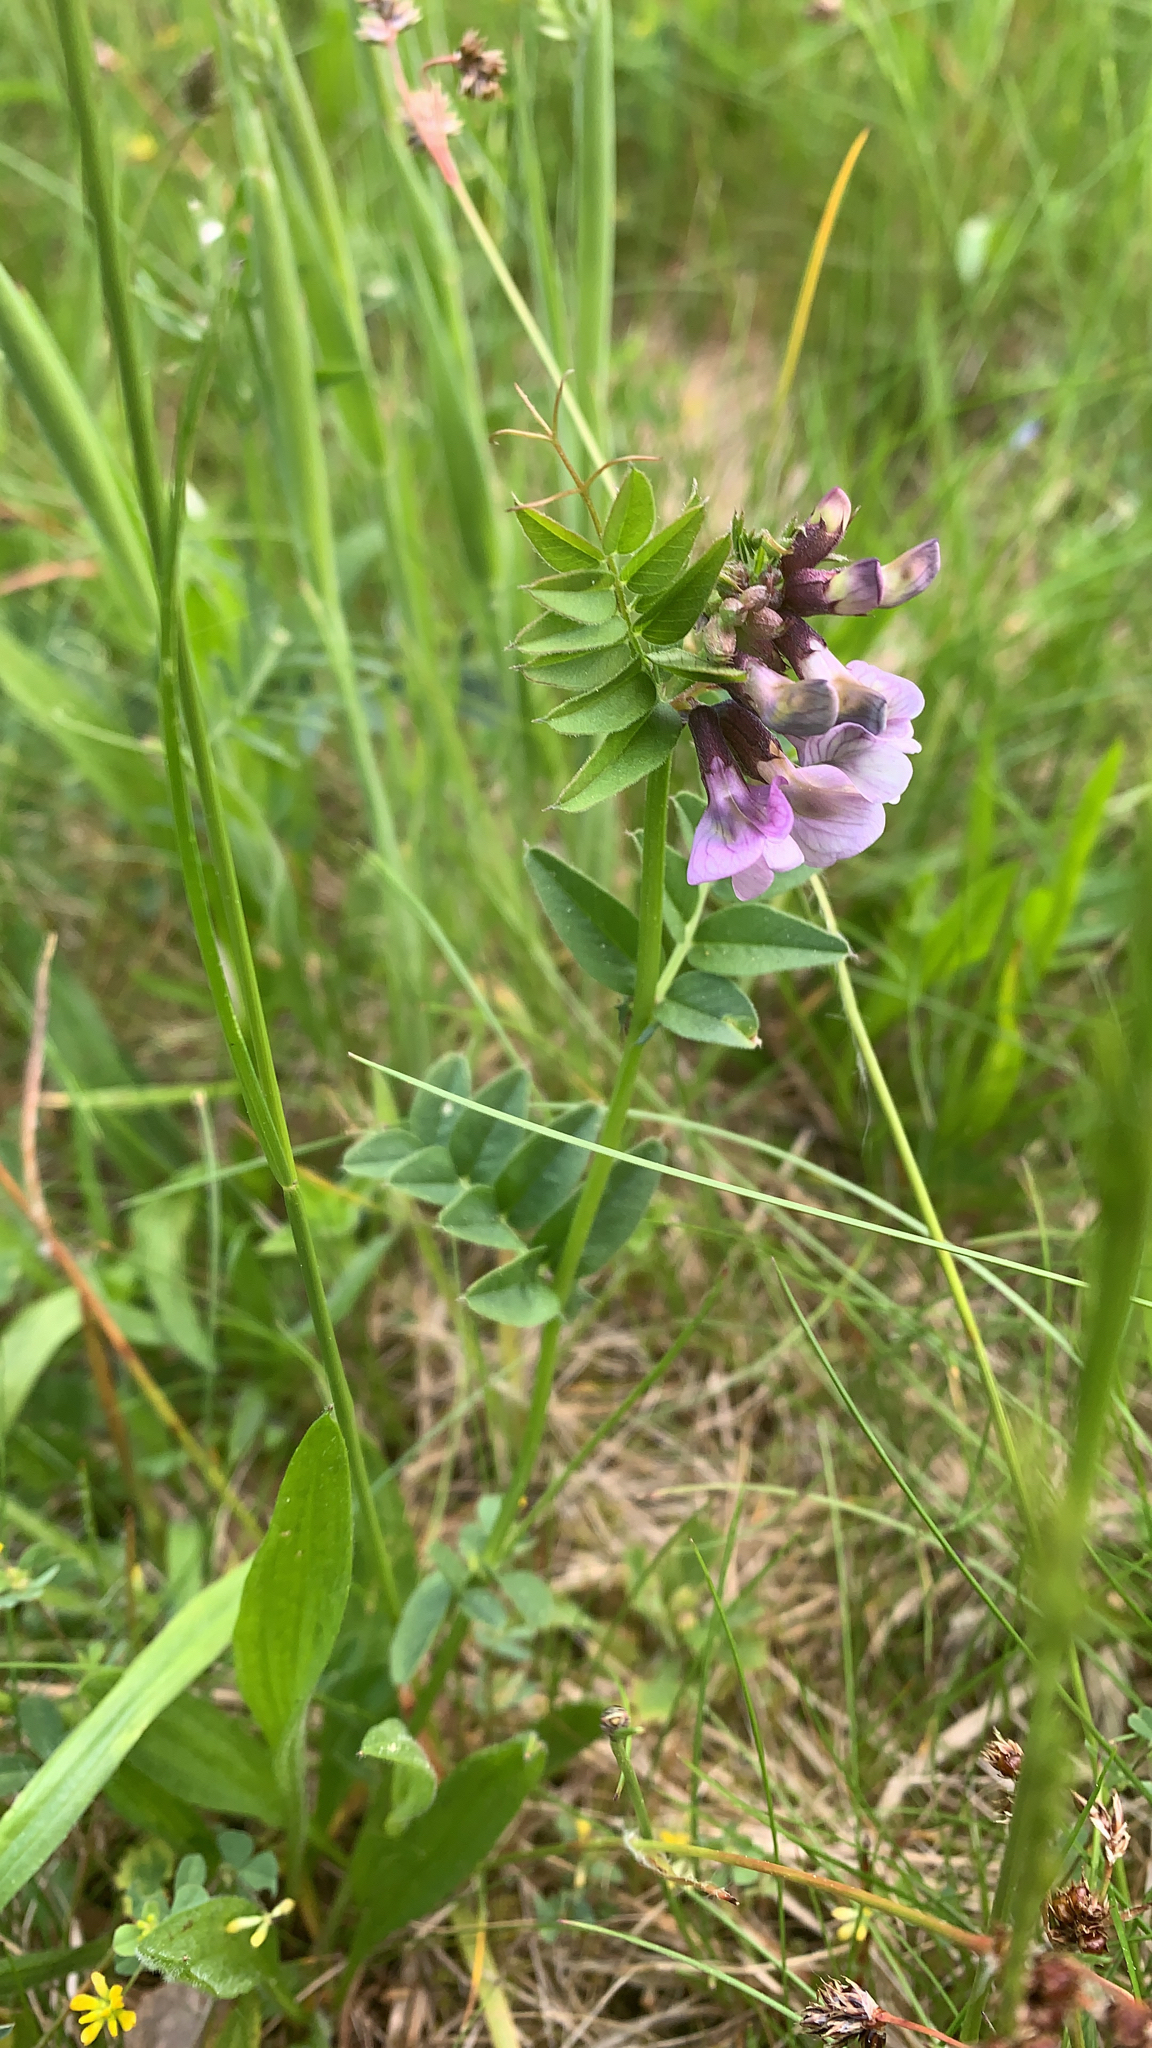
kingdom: Plantae
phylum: Tracheophyta
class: Magnoliopsida
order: Fabales
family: Fabaceae
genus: Vicia
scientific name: Vicia sepium
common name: Bush vetch
